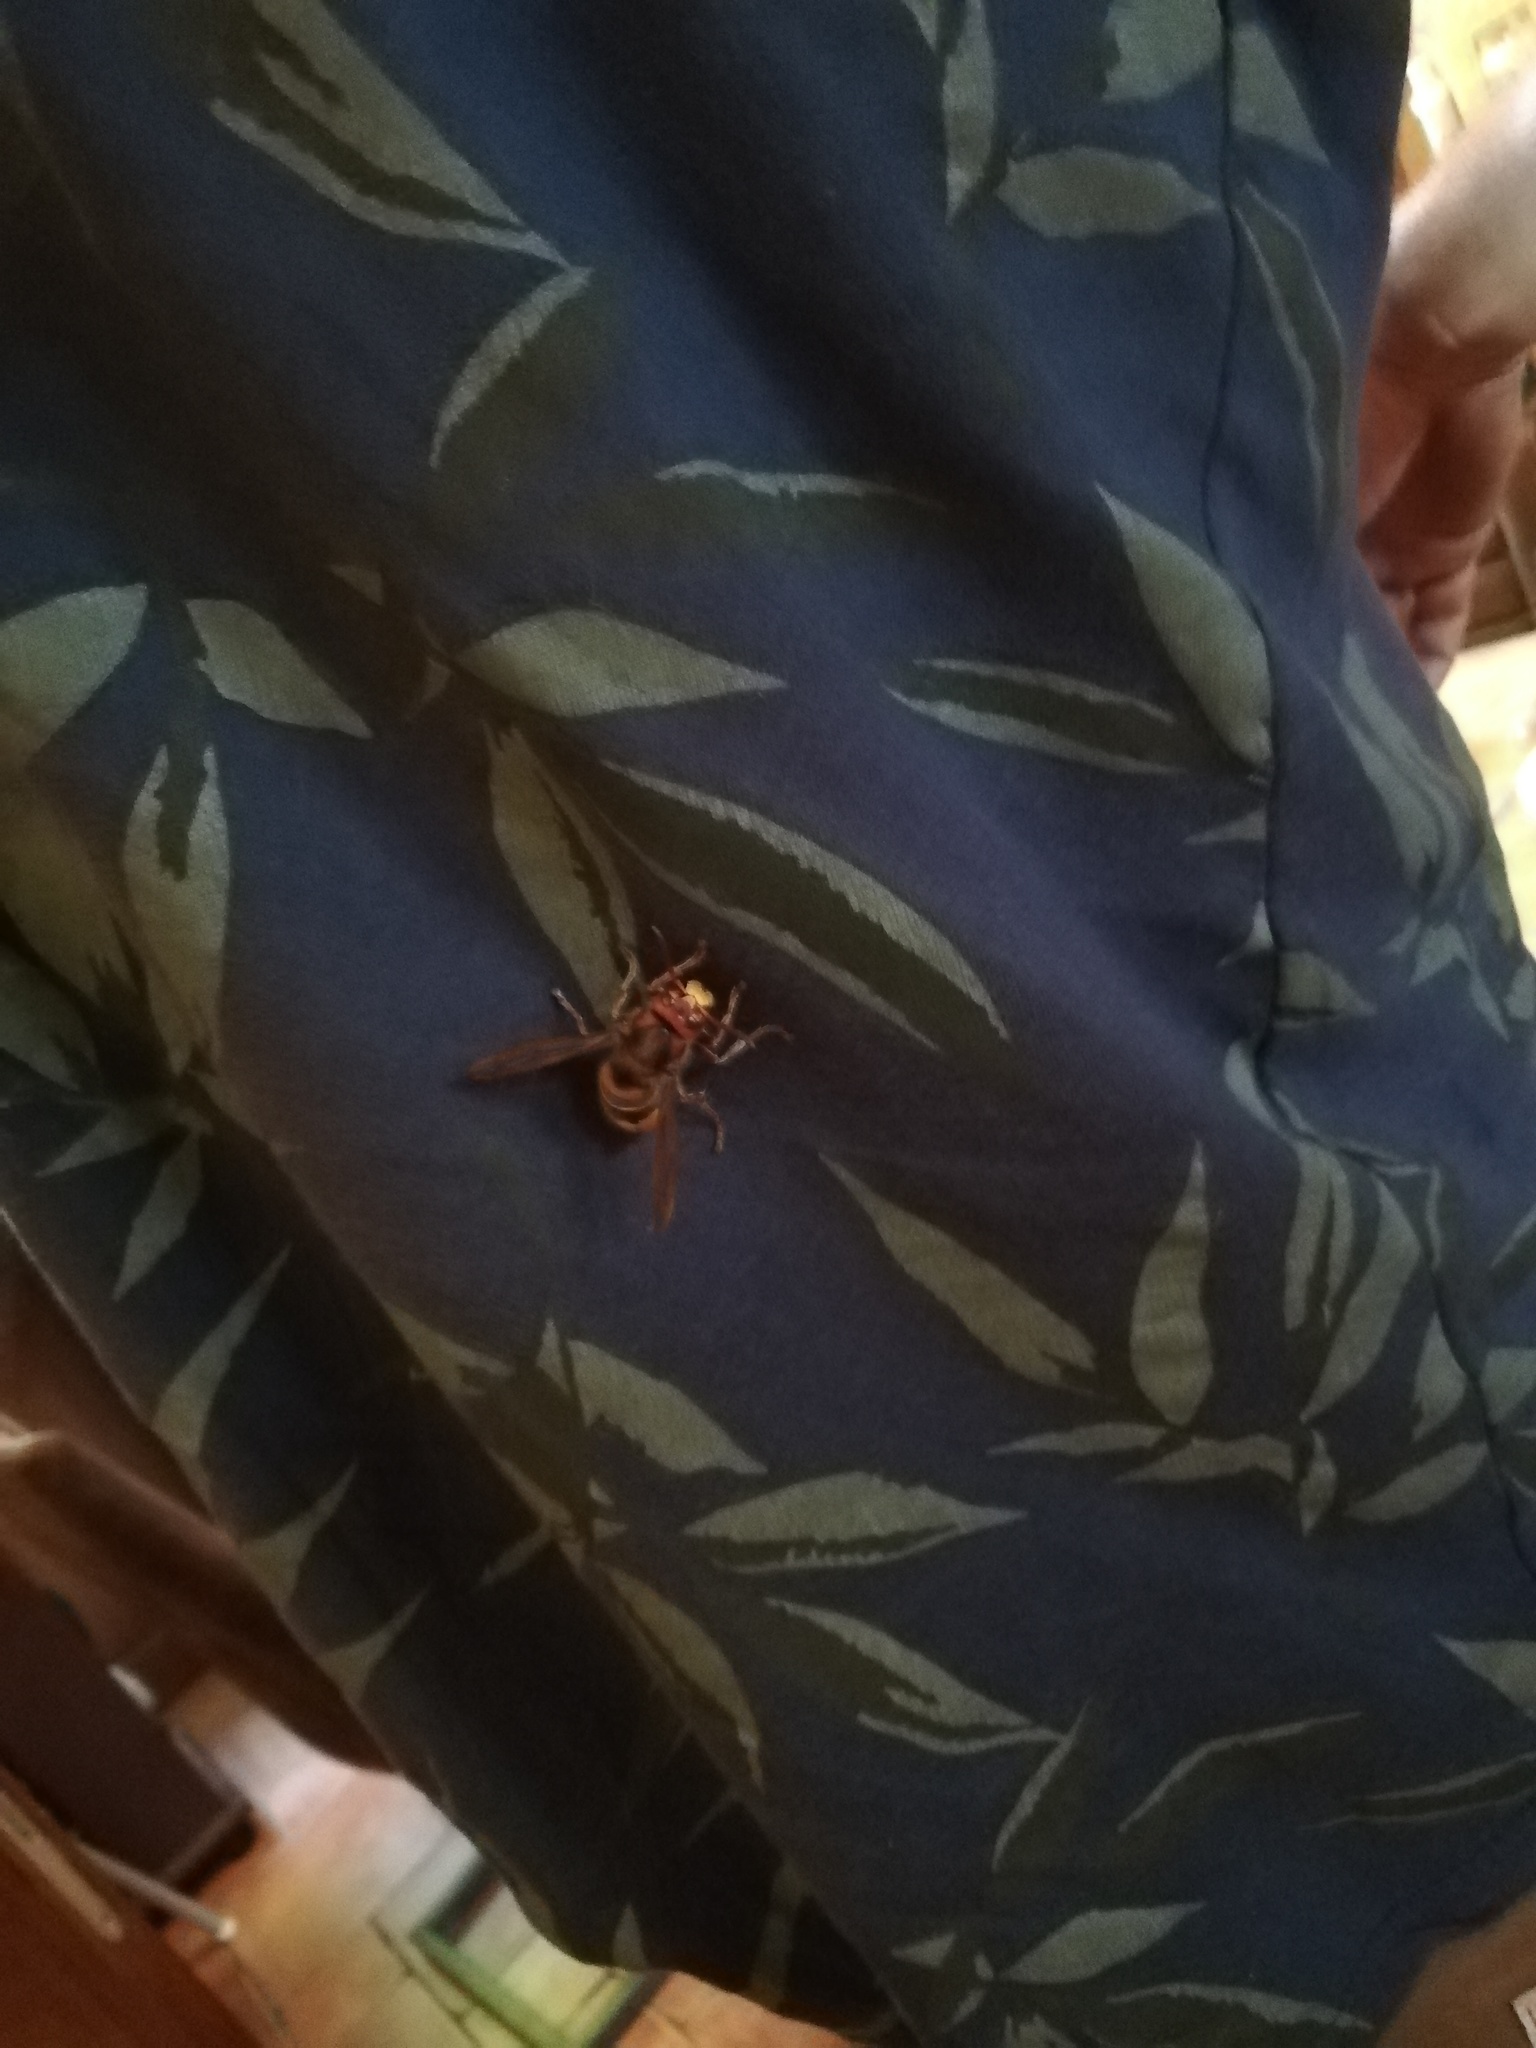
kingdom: Animalia
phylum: Arthropoda
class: Insecta
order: Hymenoptera
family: Vespidae
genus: Vespa
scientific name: Vespa crabro
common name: Hornet
